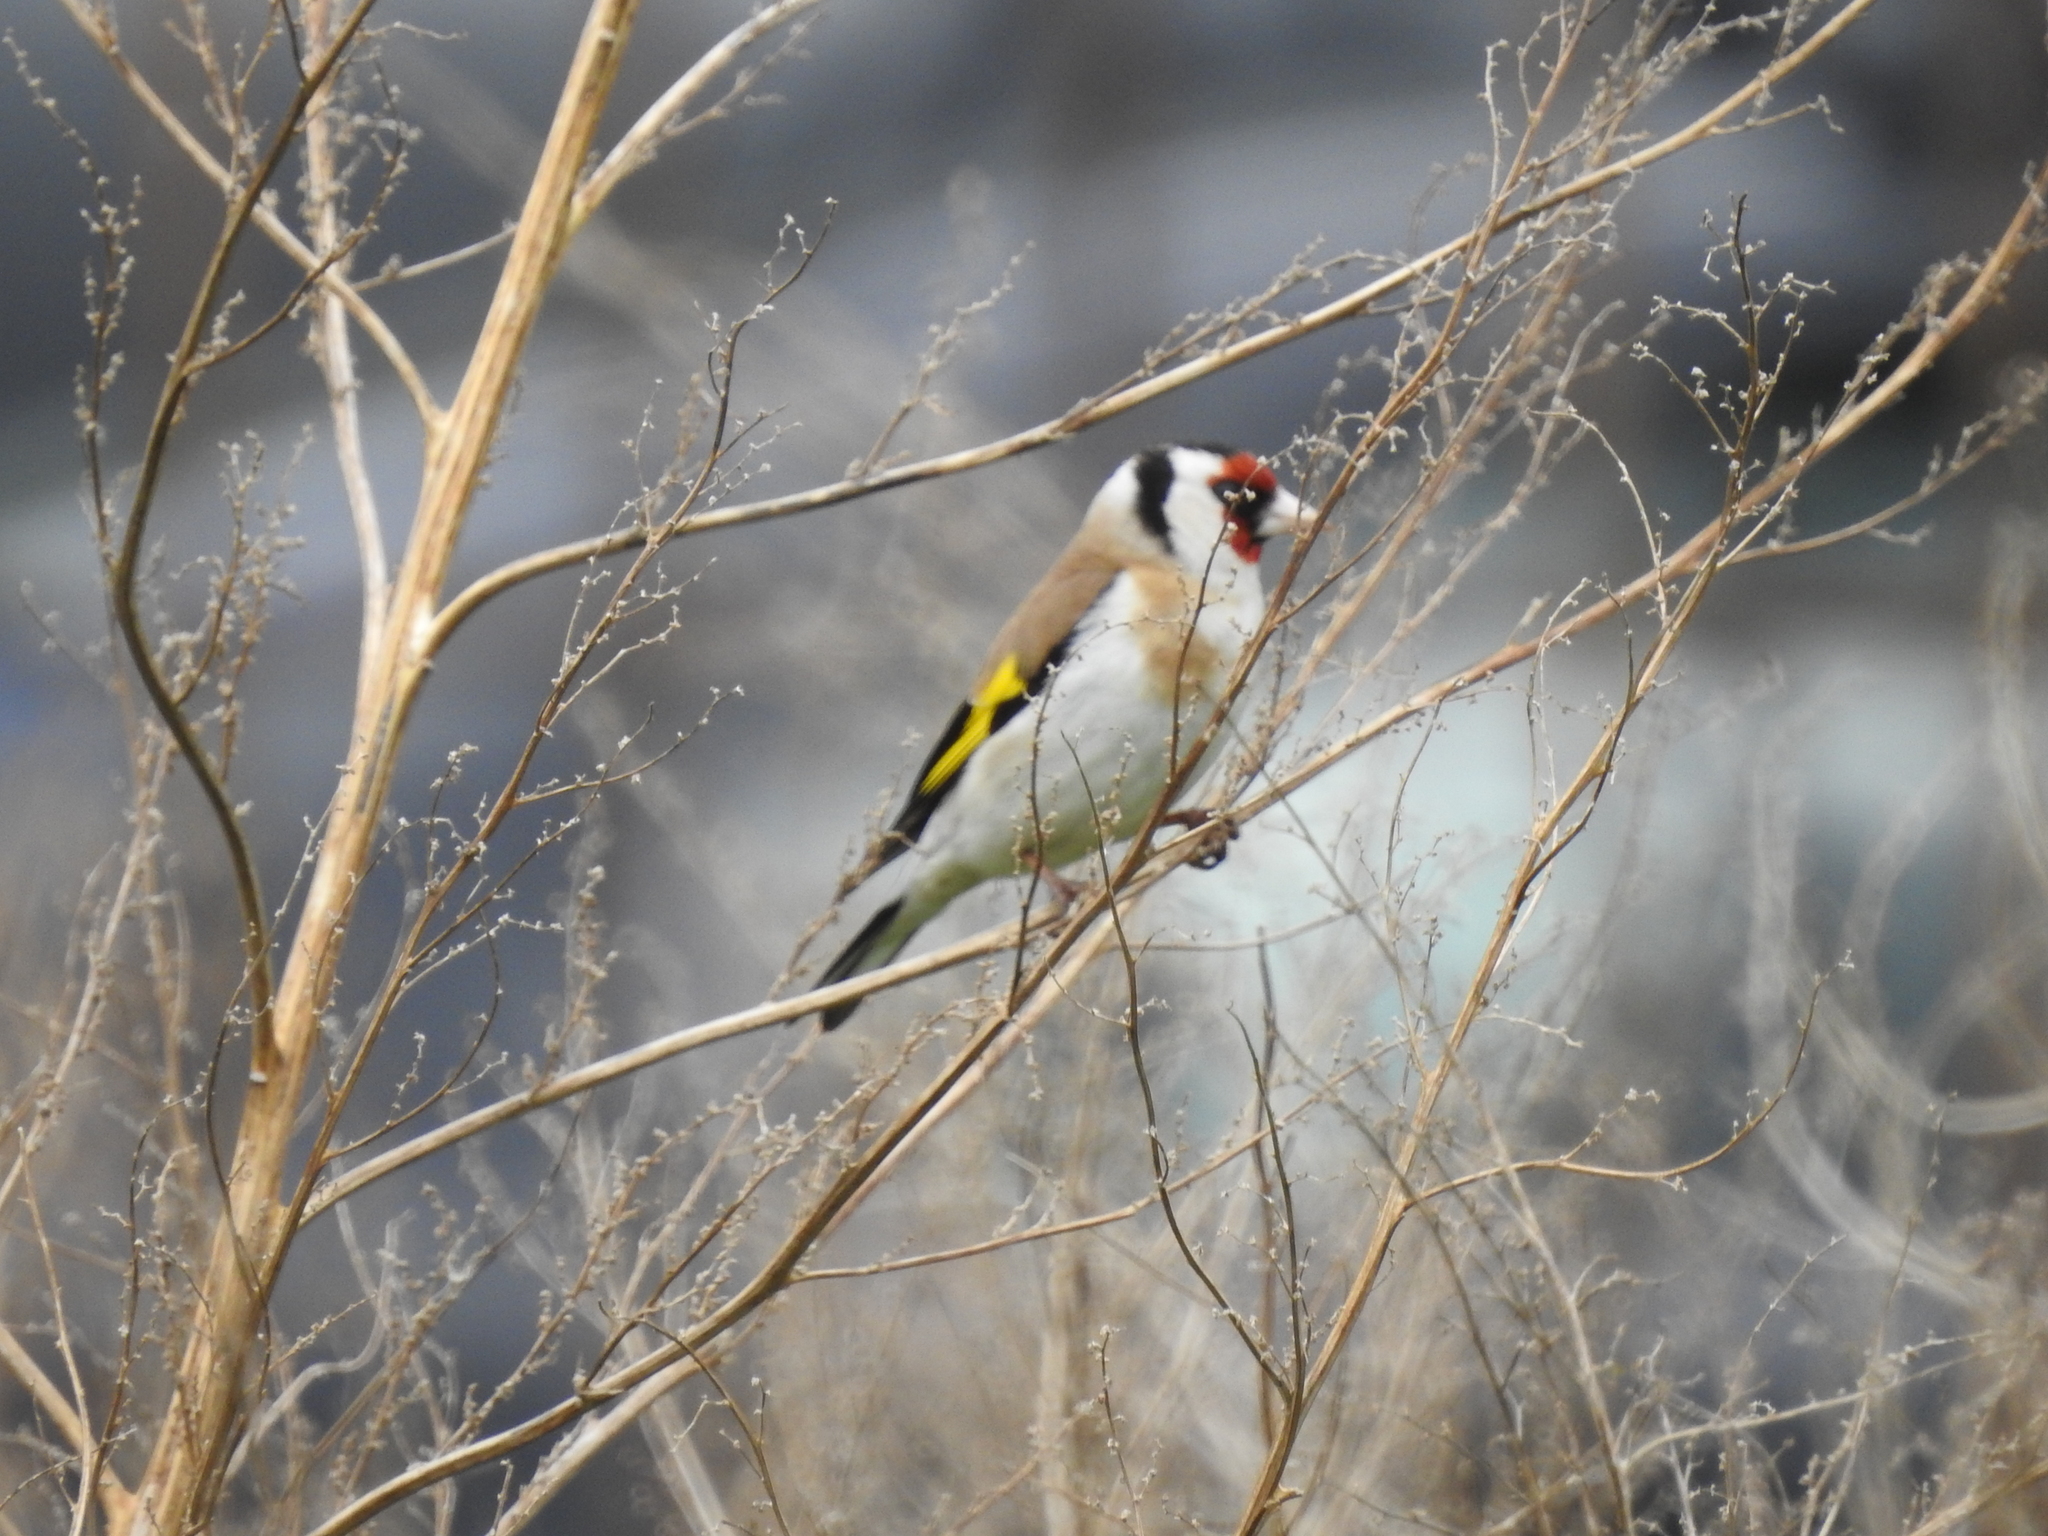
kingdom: Animalia
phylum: Chordata
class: Aves
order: Passeriformes
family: Fringillidae
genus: Carduelis
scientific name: Carduelis carduelis
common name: European goldfinch
